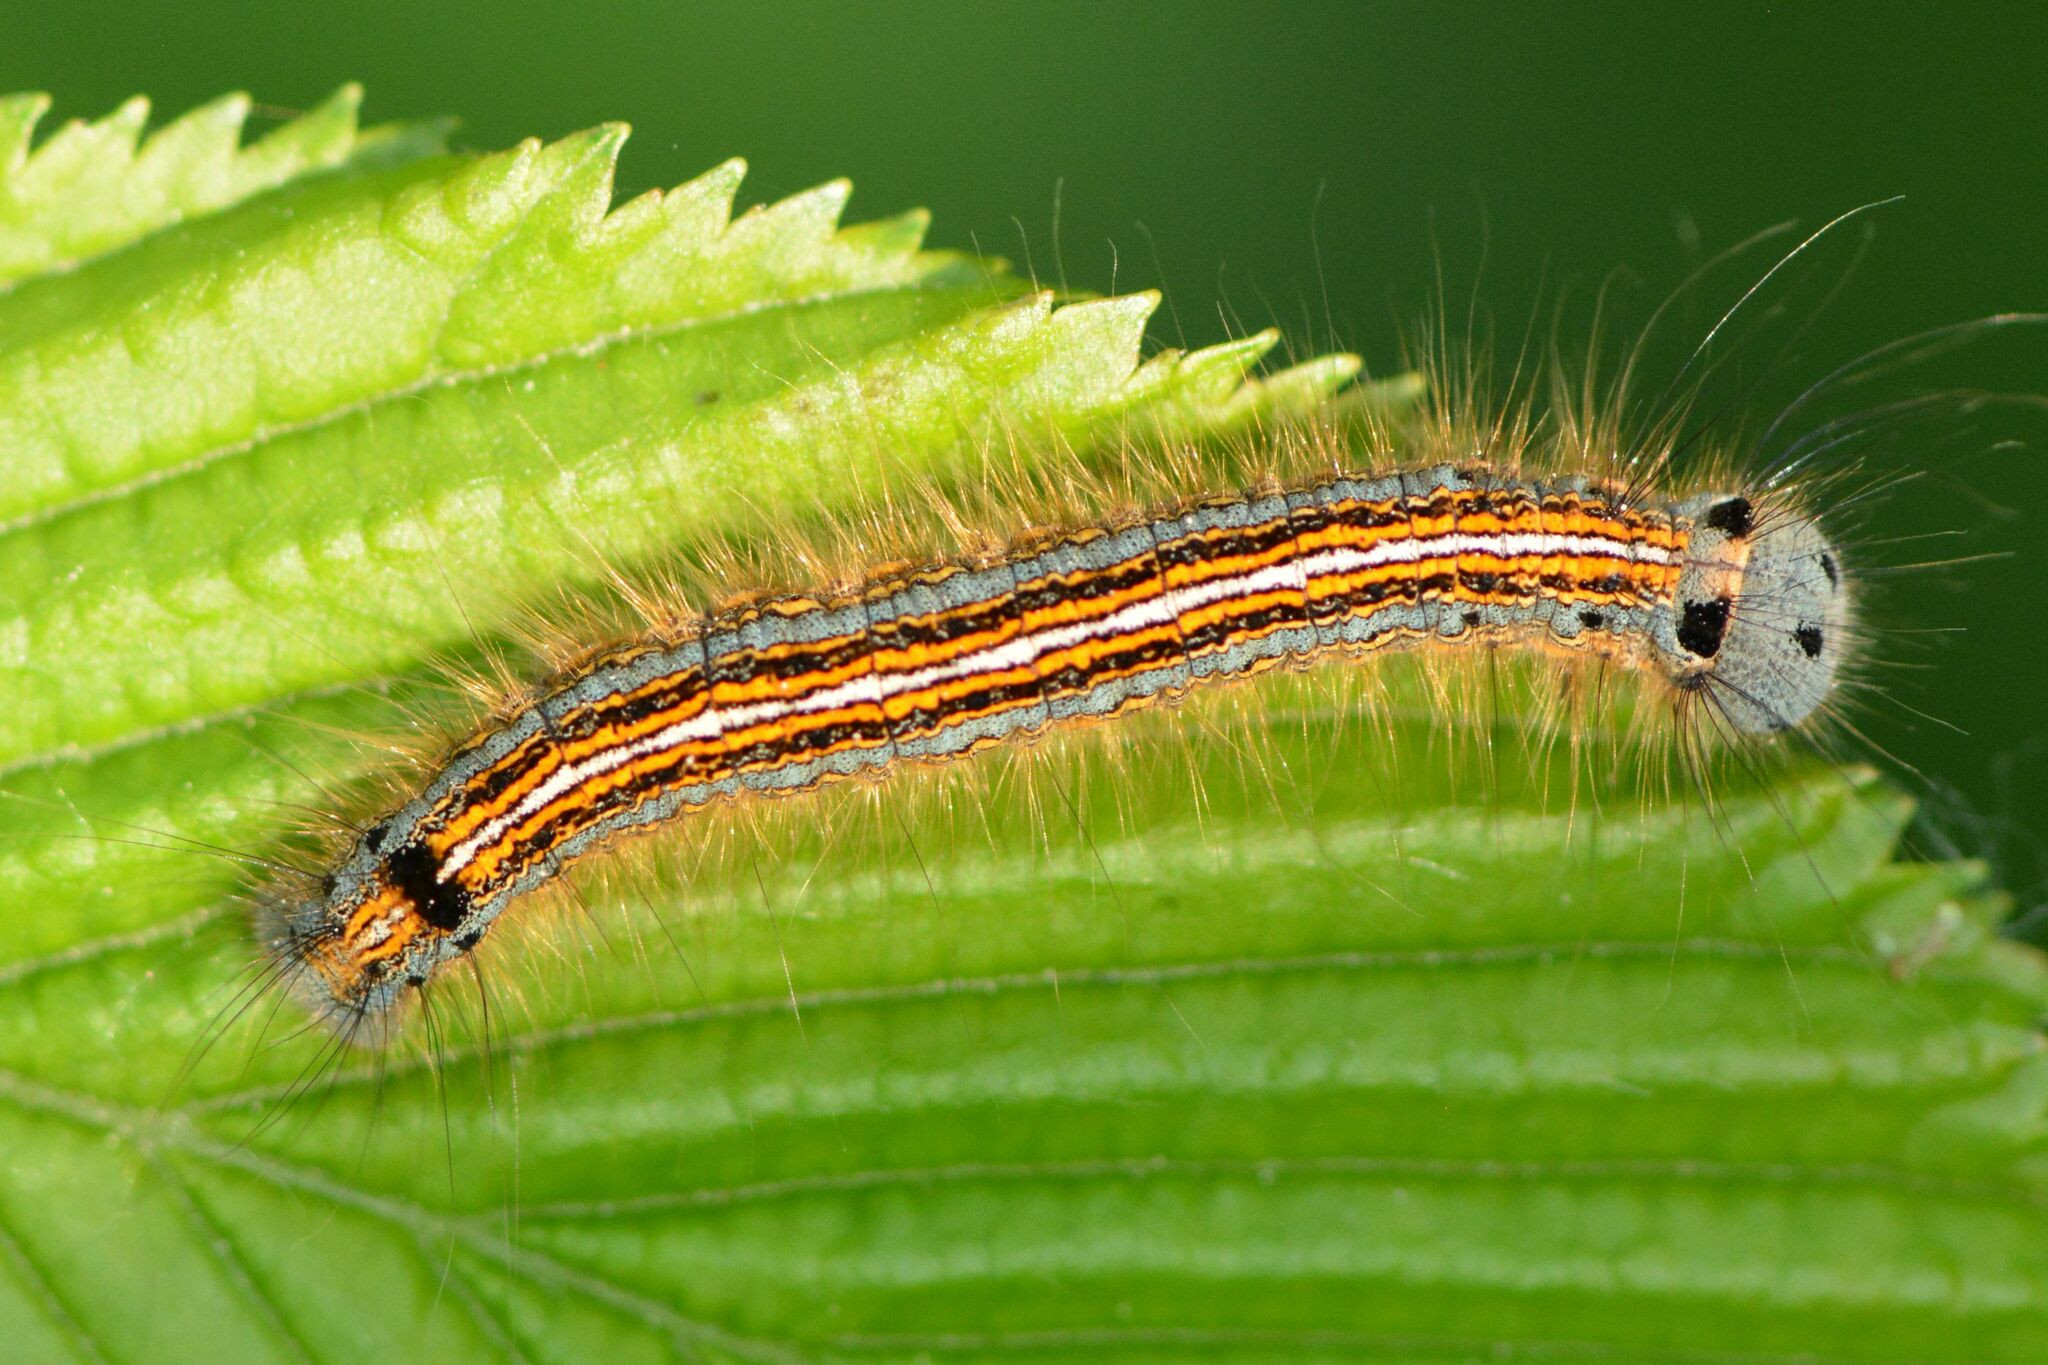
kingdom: Animalia
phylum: Arthropoda
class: Insecta
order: Lepidoptera
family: Lasiocampidae
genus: Malacosoma
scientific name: Malacosoma neustria
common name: The lackey
